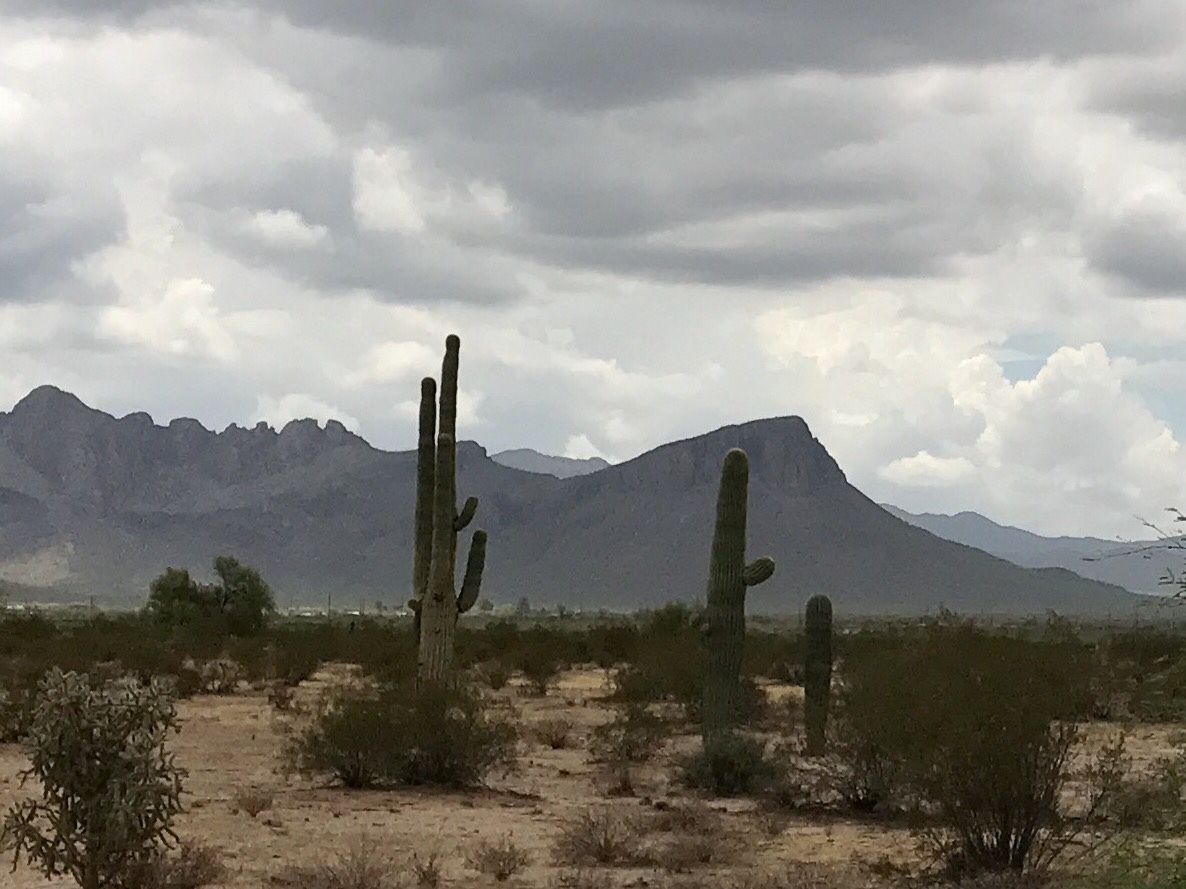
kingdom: Plantae
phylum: Tracheophyta
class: Magnoliopsida
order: Caryophyllales
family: Cactaceae
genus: Carnegiea
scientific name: Carnegiea gigantea
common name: Saguaro
